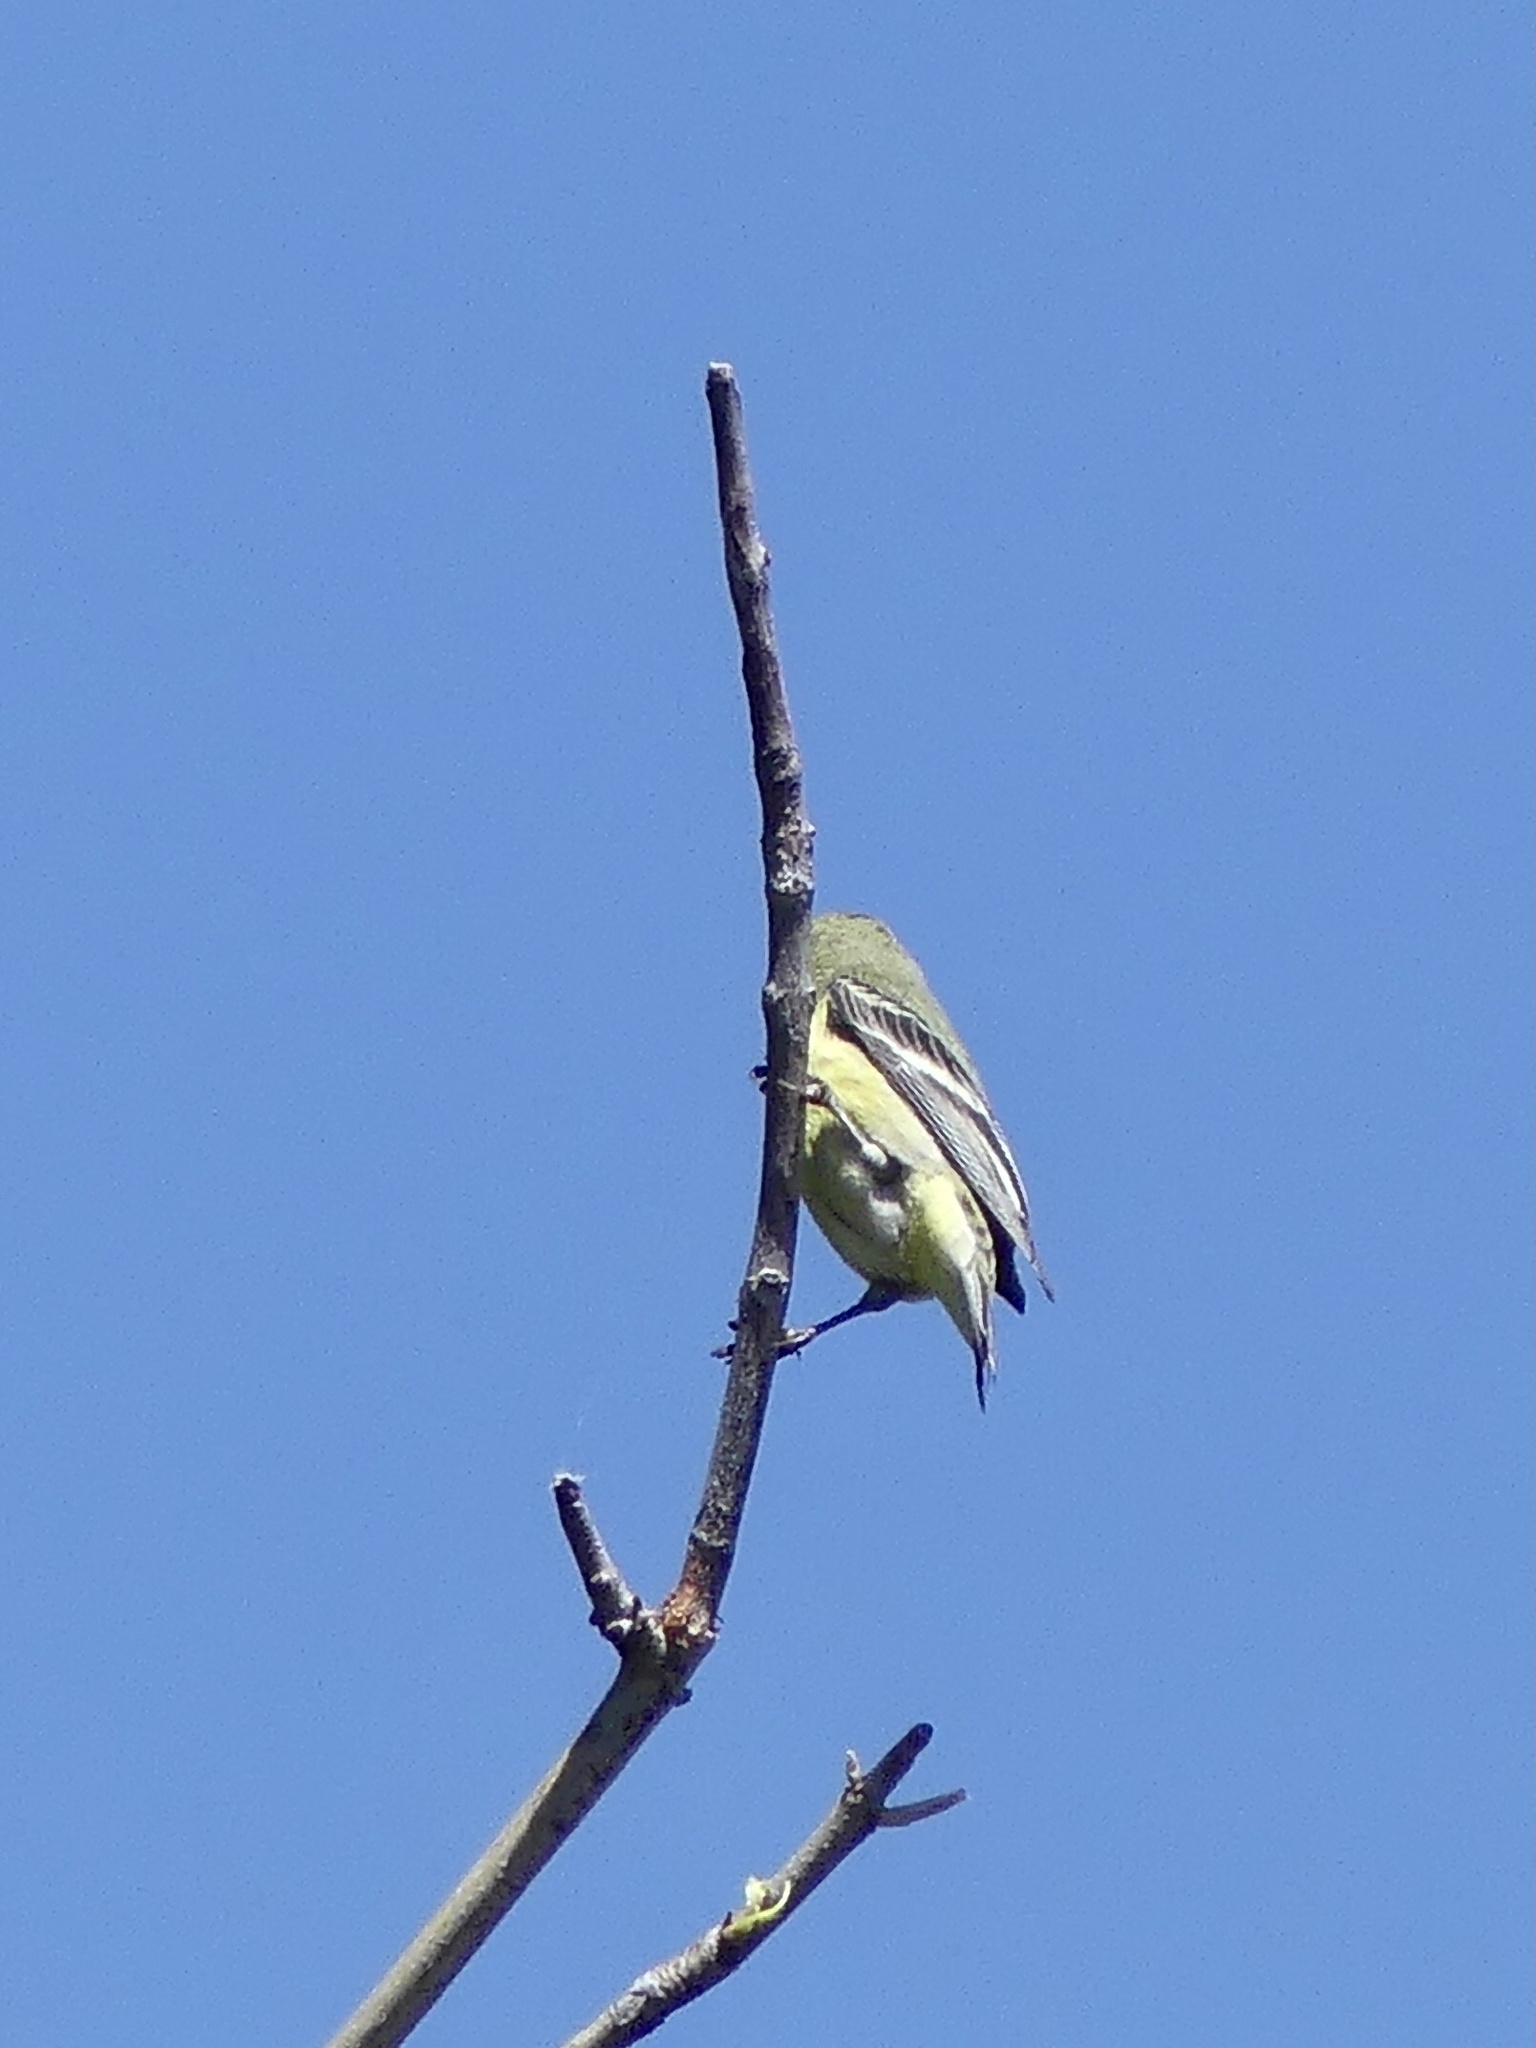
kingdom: Animalia
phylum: Chordata
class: Aves
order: Passeriformes
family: Fringillidae
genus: Spinus
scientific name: Spinus psaltria
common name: Lesser goldfinch
